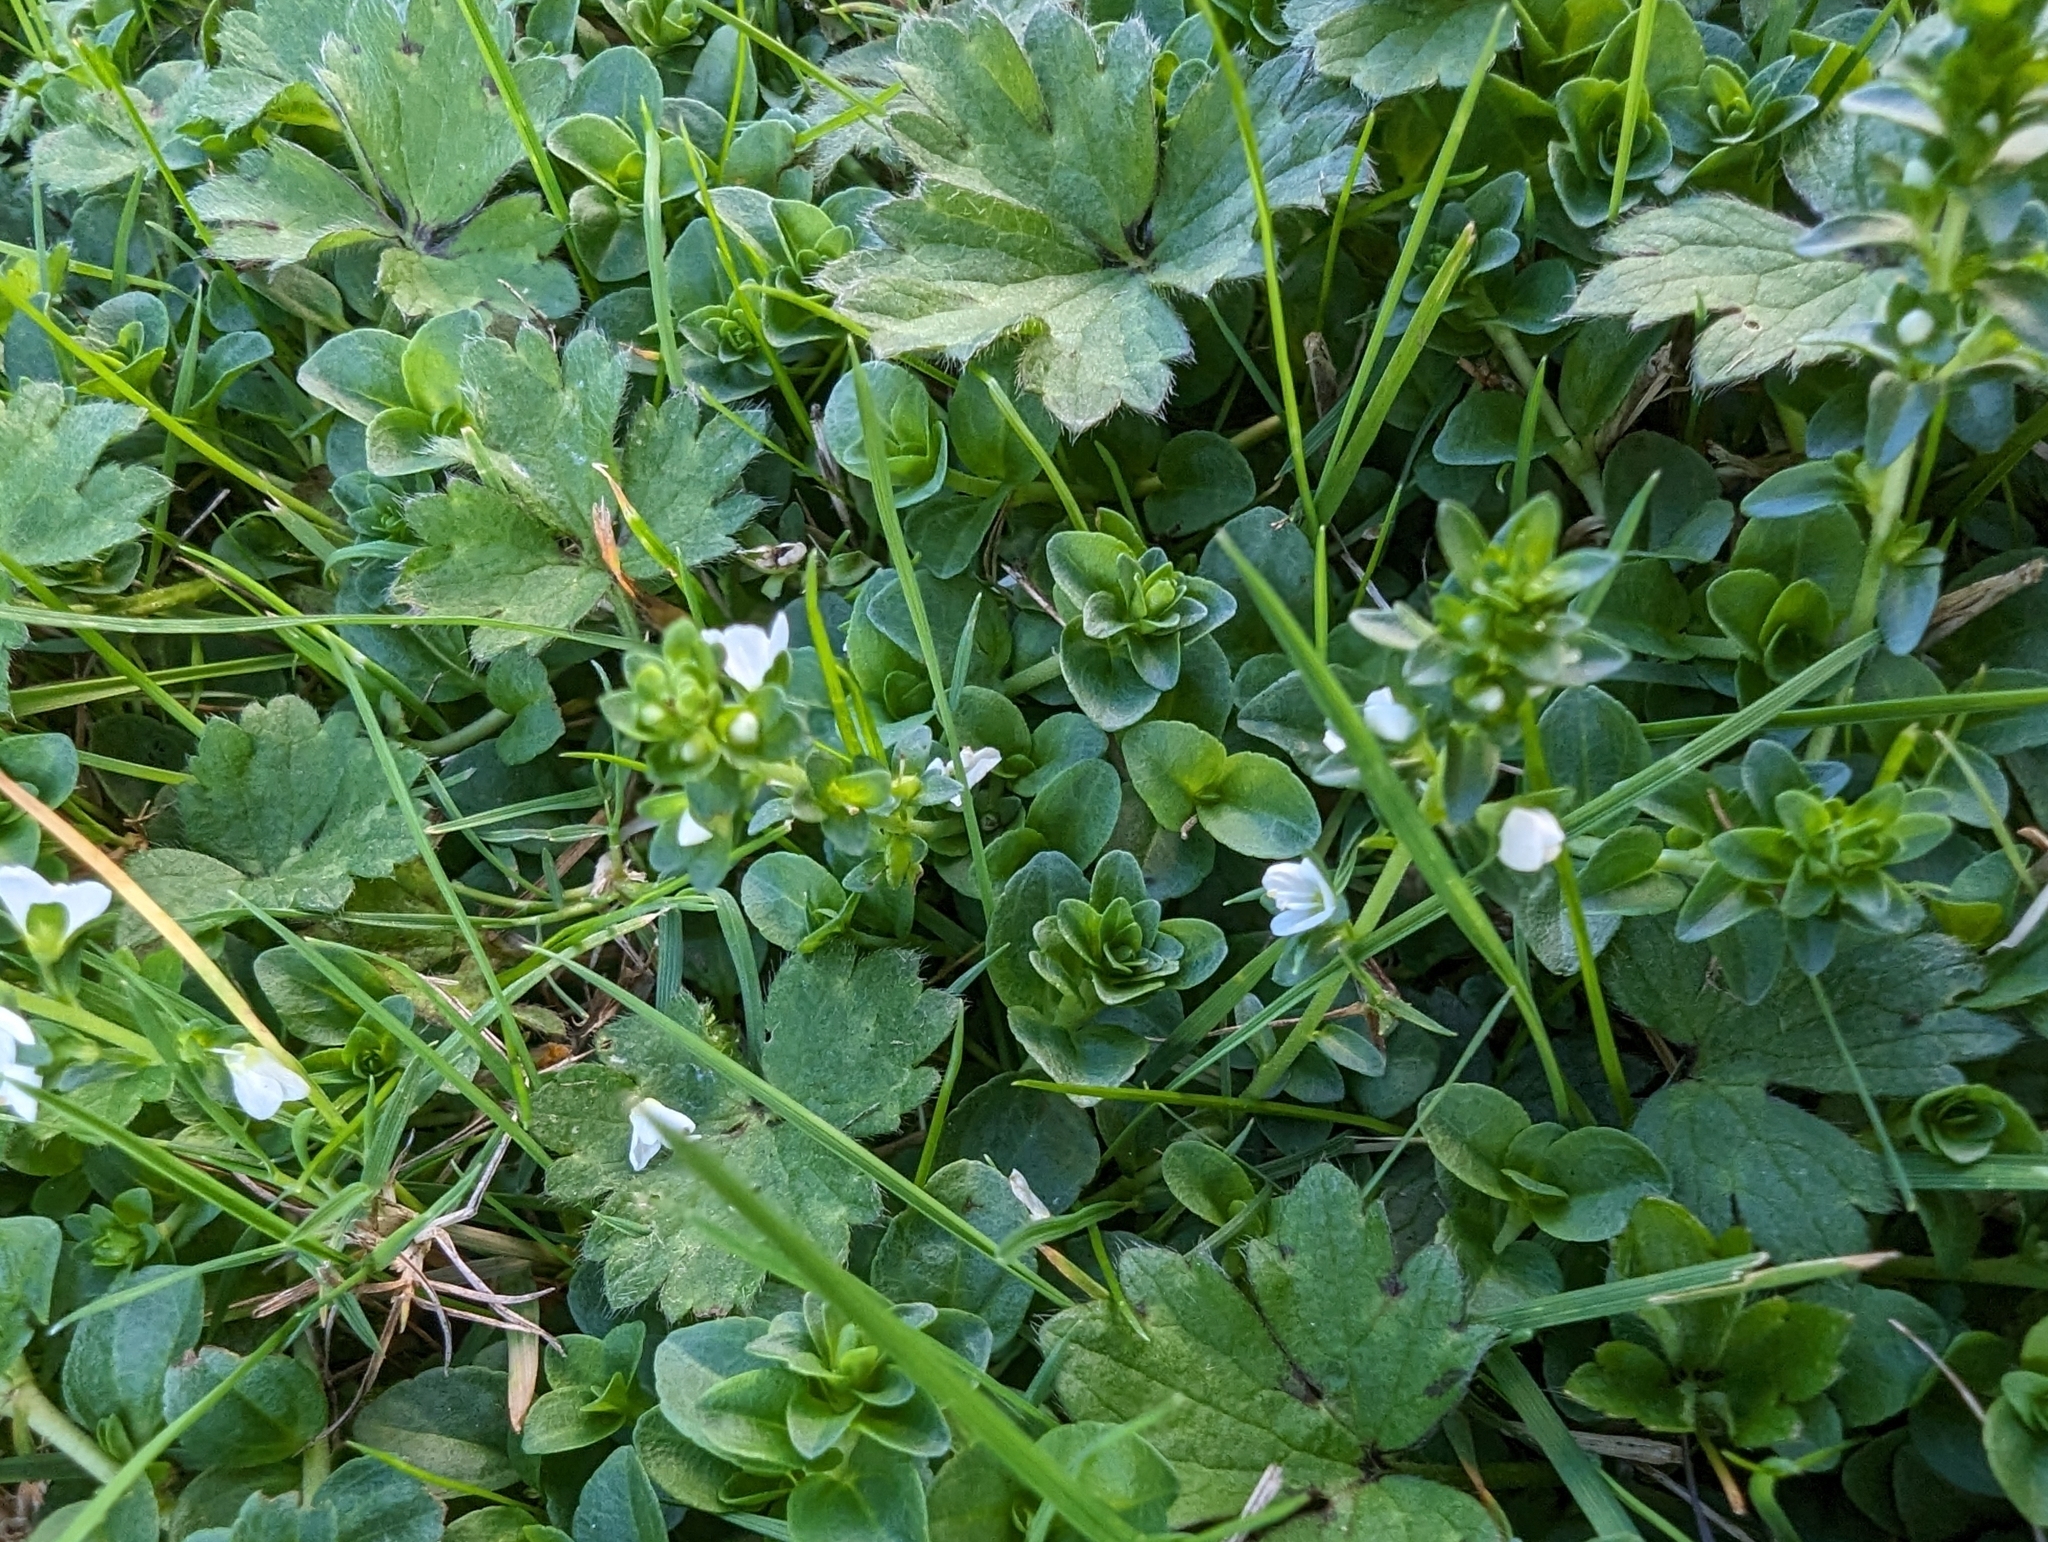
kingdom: Plantae
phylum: Tracheophyta
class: Magnoliopsida
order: Lamiales
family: Plantaginaceae
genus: Veronica
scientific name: Veronica serpyllifolia
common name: Thyme-leaved speedwell
